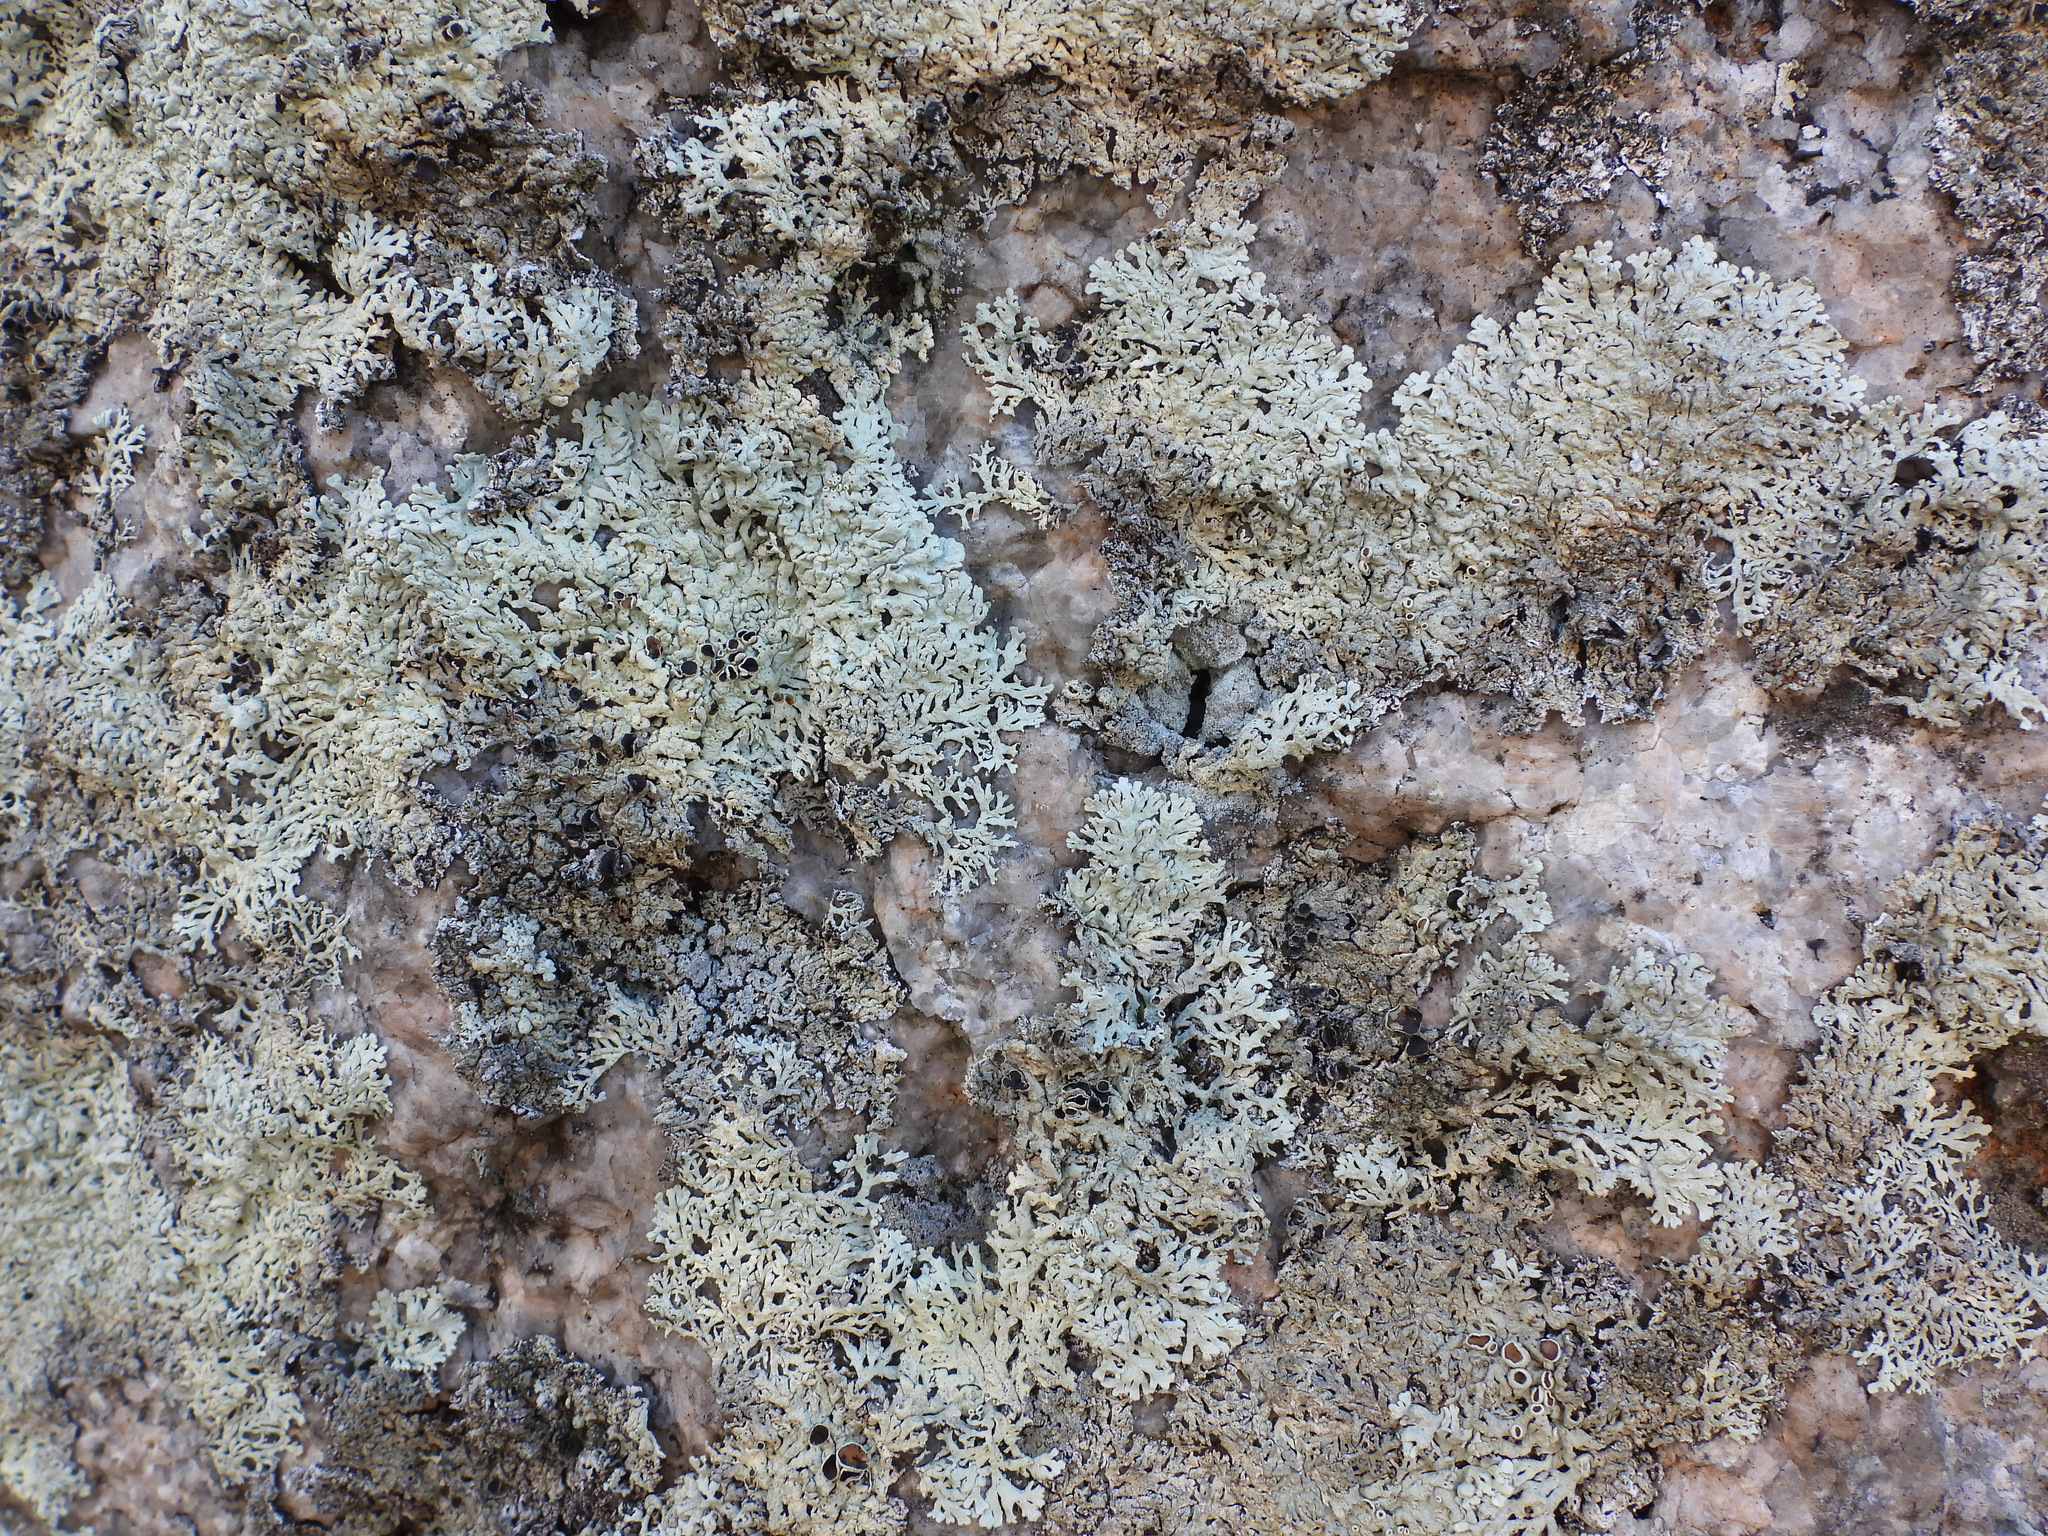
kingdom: Fungi
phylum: Ascomycota
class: Lecanoromycetes
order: Lecanorales
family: Parmeliaceae
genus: Arctoparmelia
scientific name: Arctoparmelia centrifuga
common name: Concentric ring lichen
